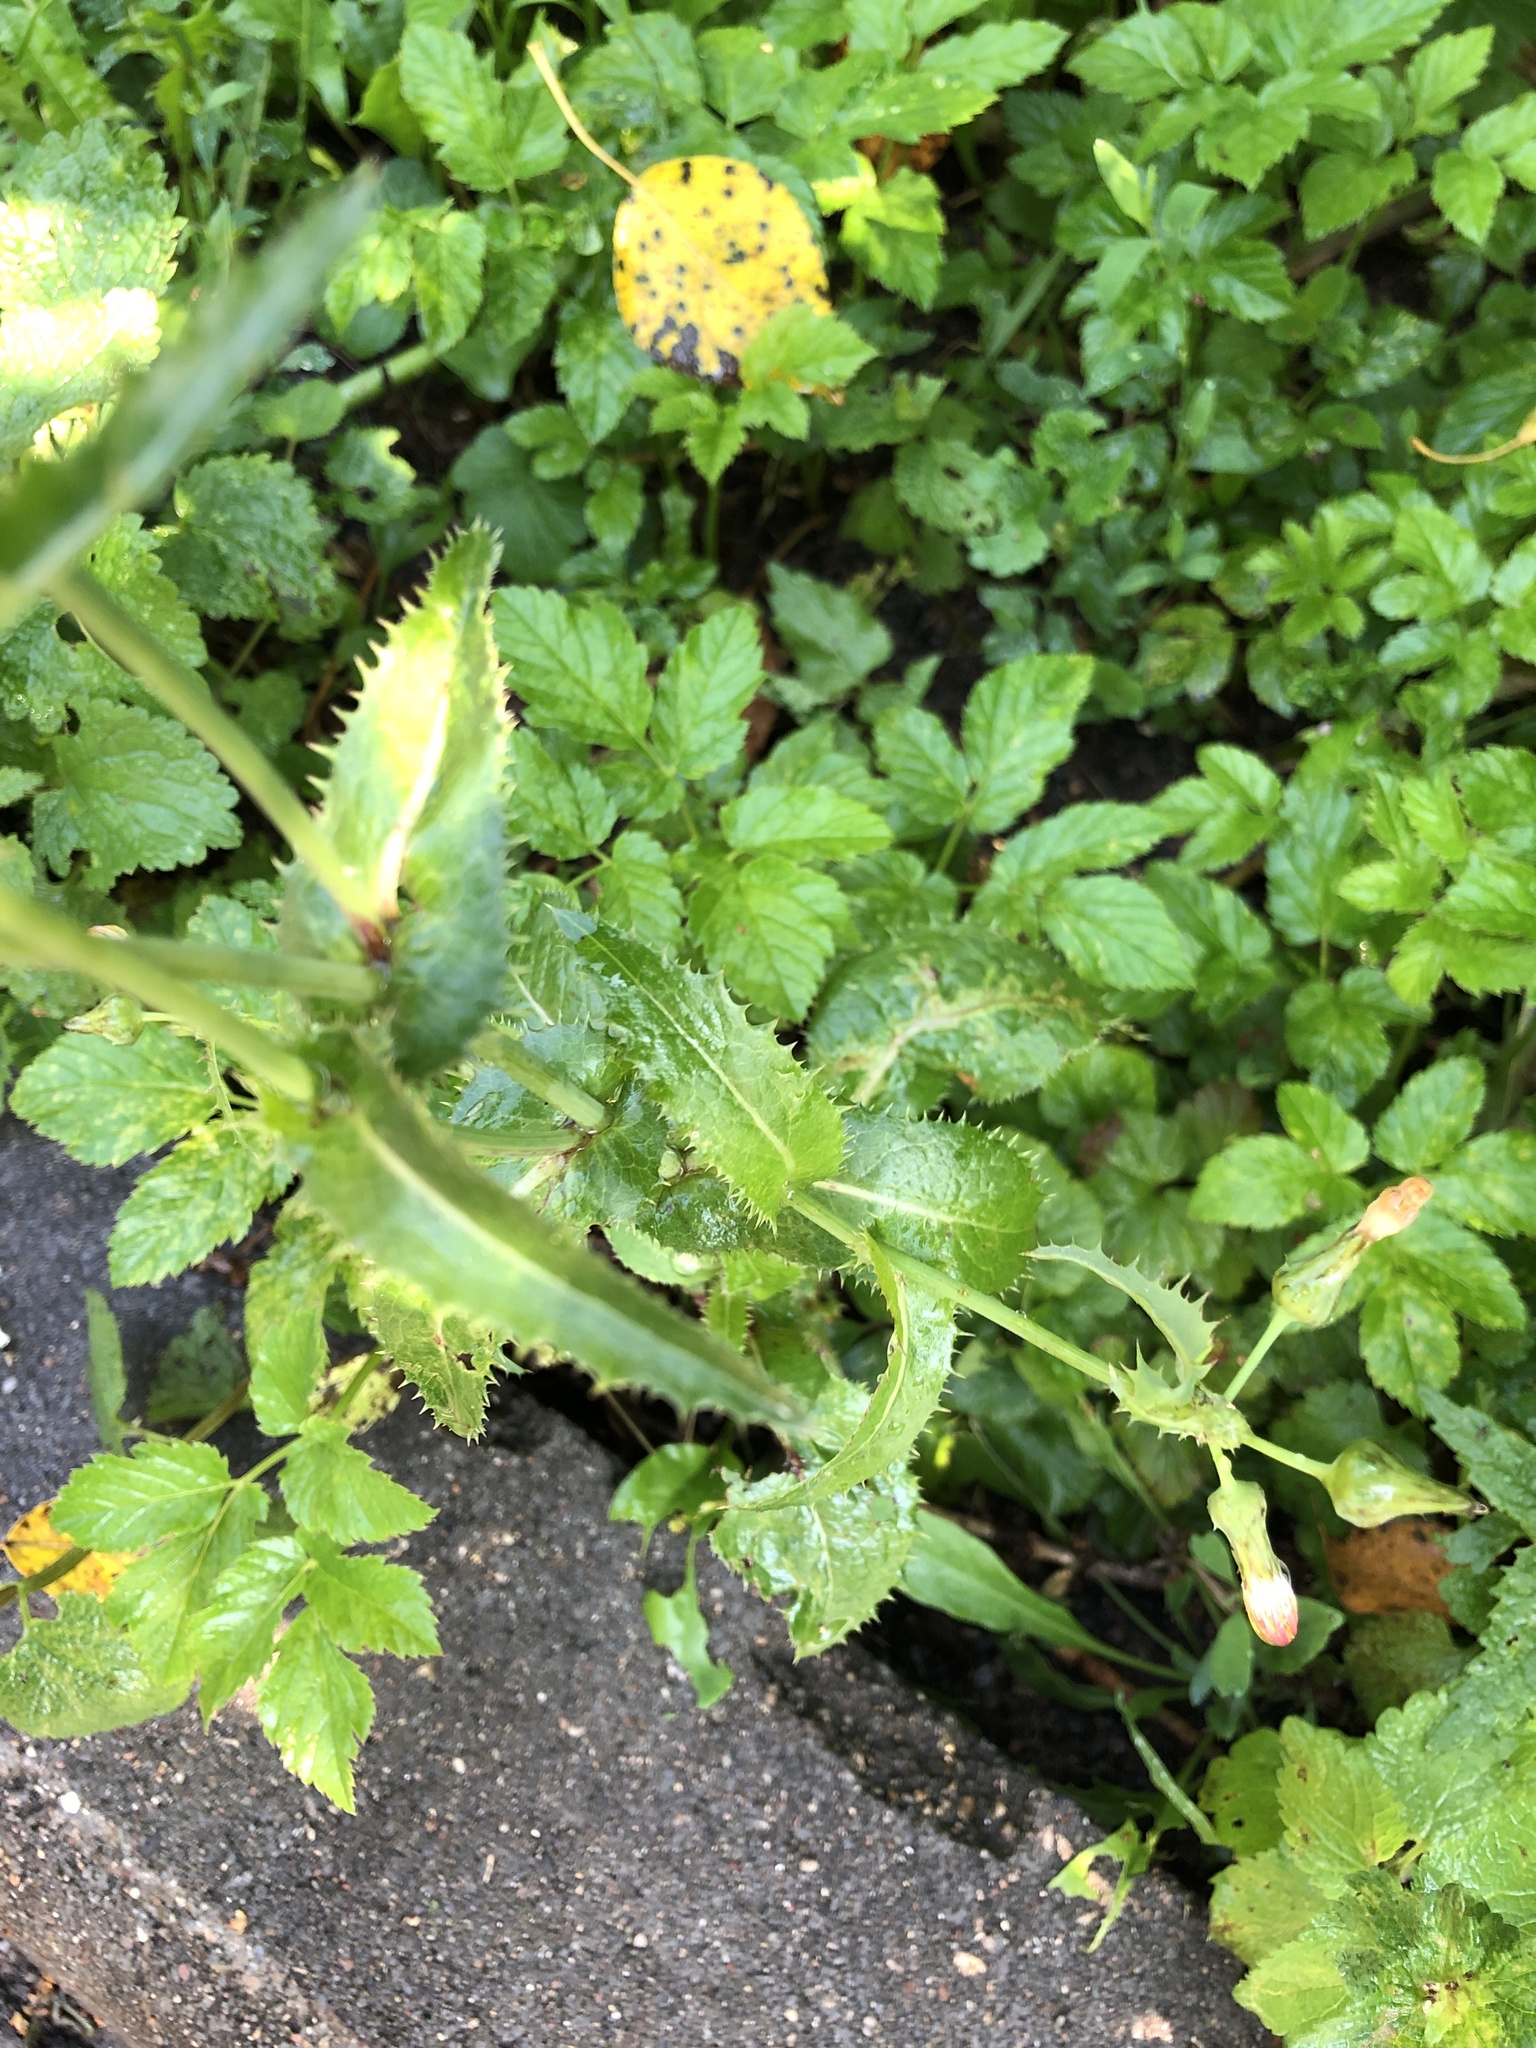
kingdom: Plantae
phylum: Tracheophyta
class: Magnoliopsida
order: Asterales
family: Asteraceae
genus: Sonchus
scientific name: Sonchus asper
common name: Prickly sow-thistle
